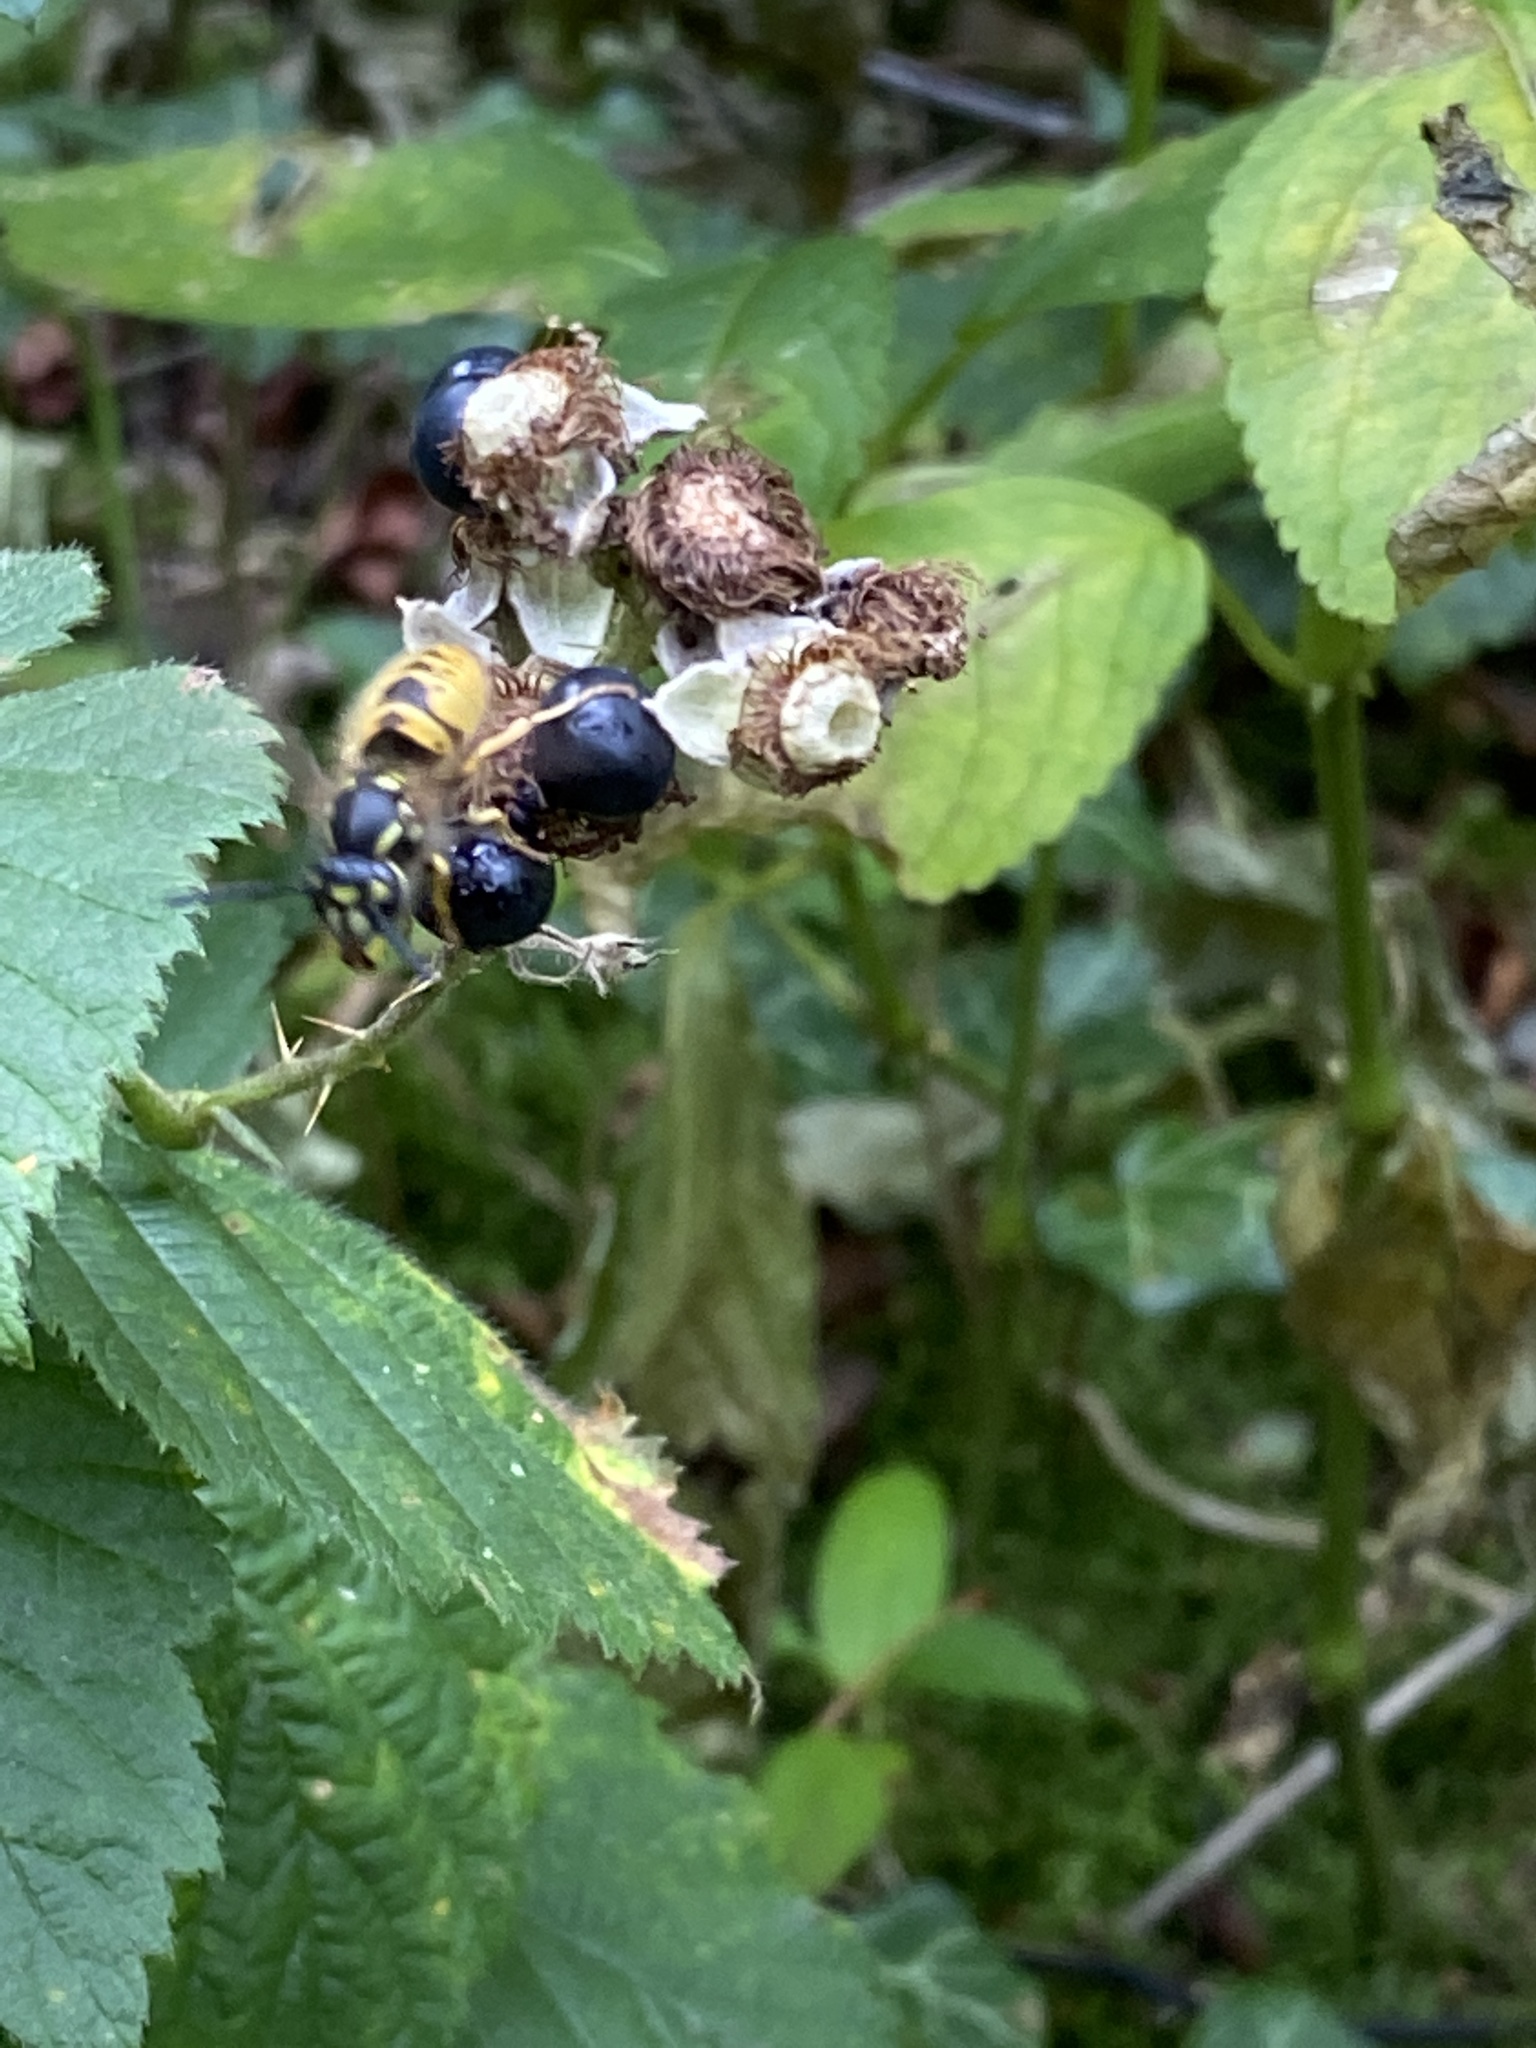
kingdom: Animalia
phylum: Arthropoda
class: Insecta
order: Hymenoptera
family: Vespidae
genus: Vespula
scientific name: Vespula vulgaris
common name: Common wasp
